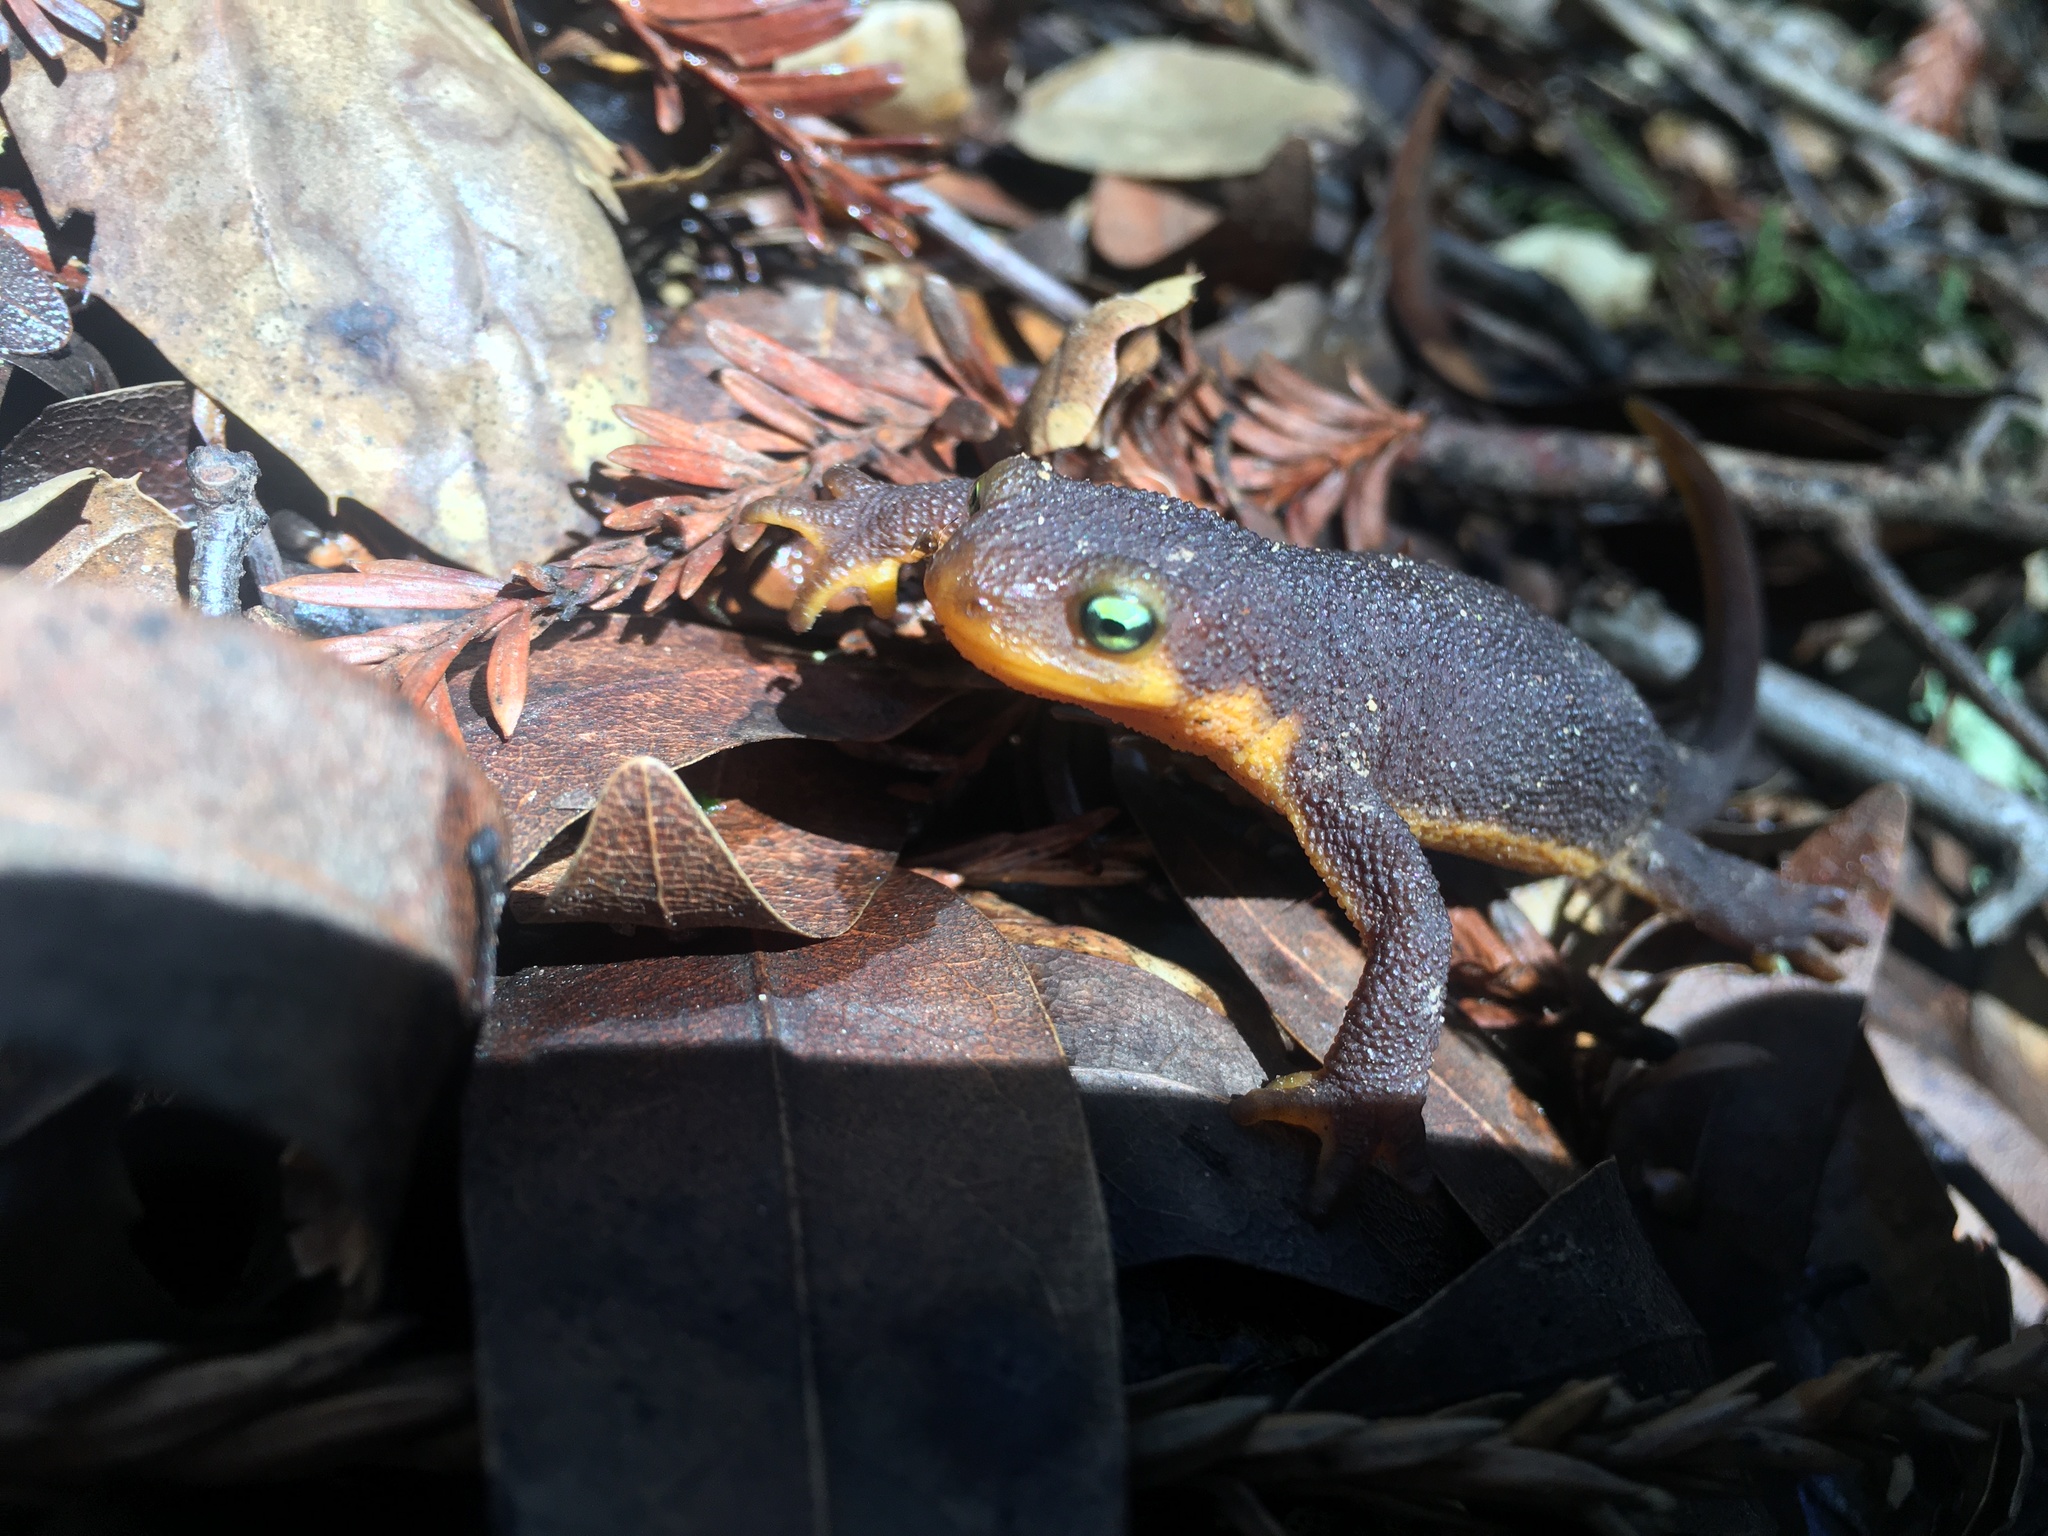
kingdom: Animalia
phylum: Chordata
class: Amphibia
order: Caudata
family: Salamandridae
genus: Taricha
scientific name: Taricha torosa
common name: California newt
